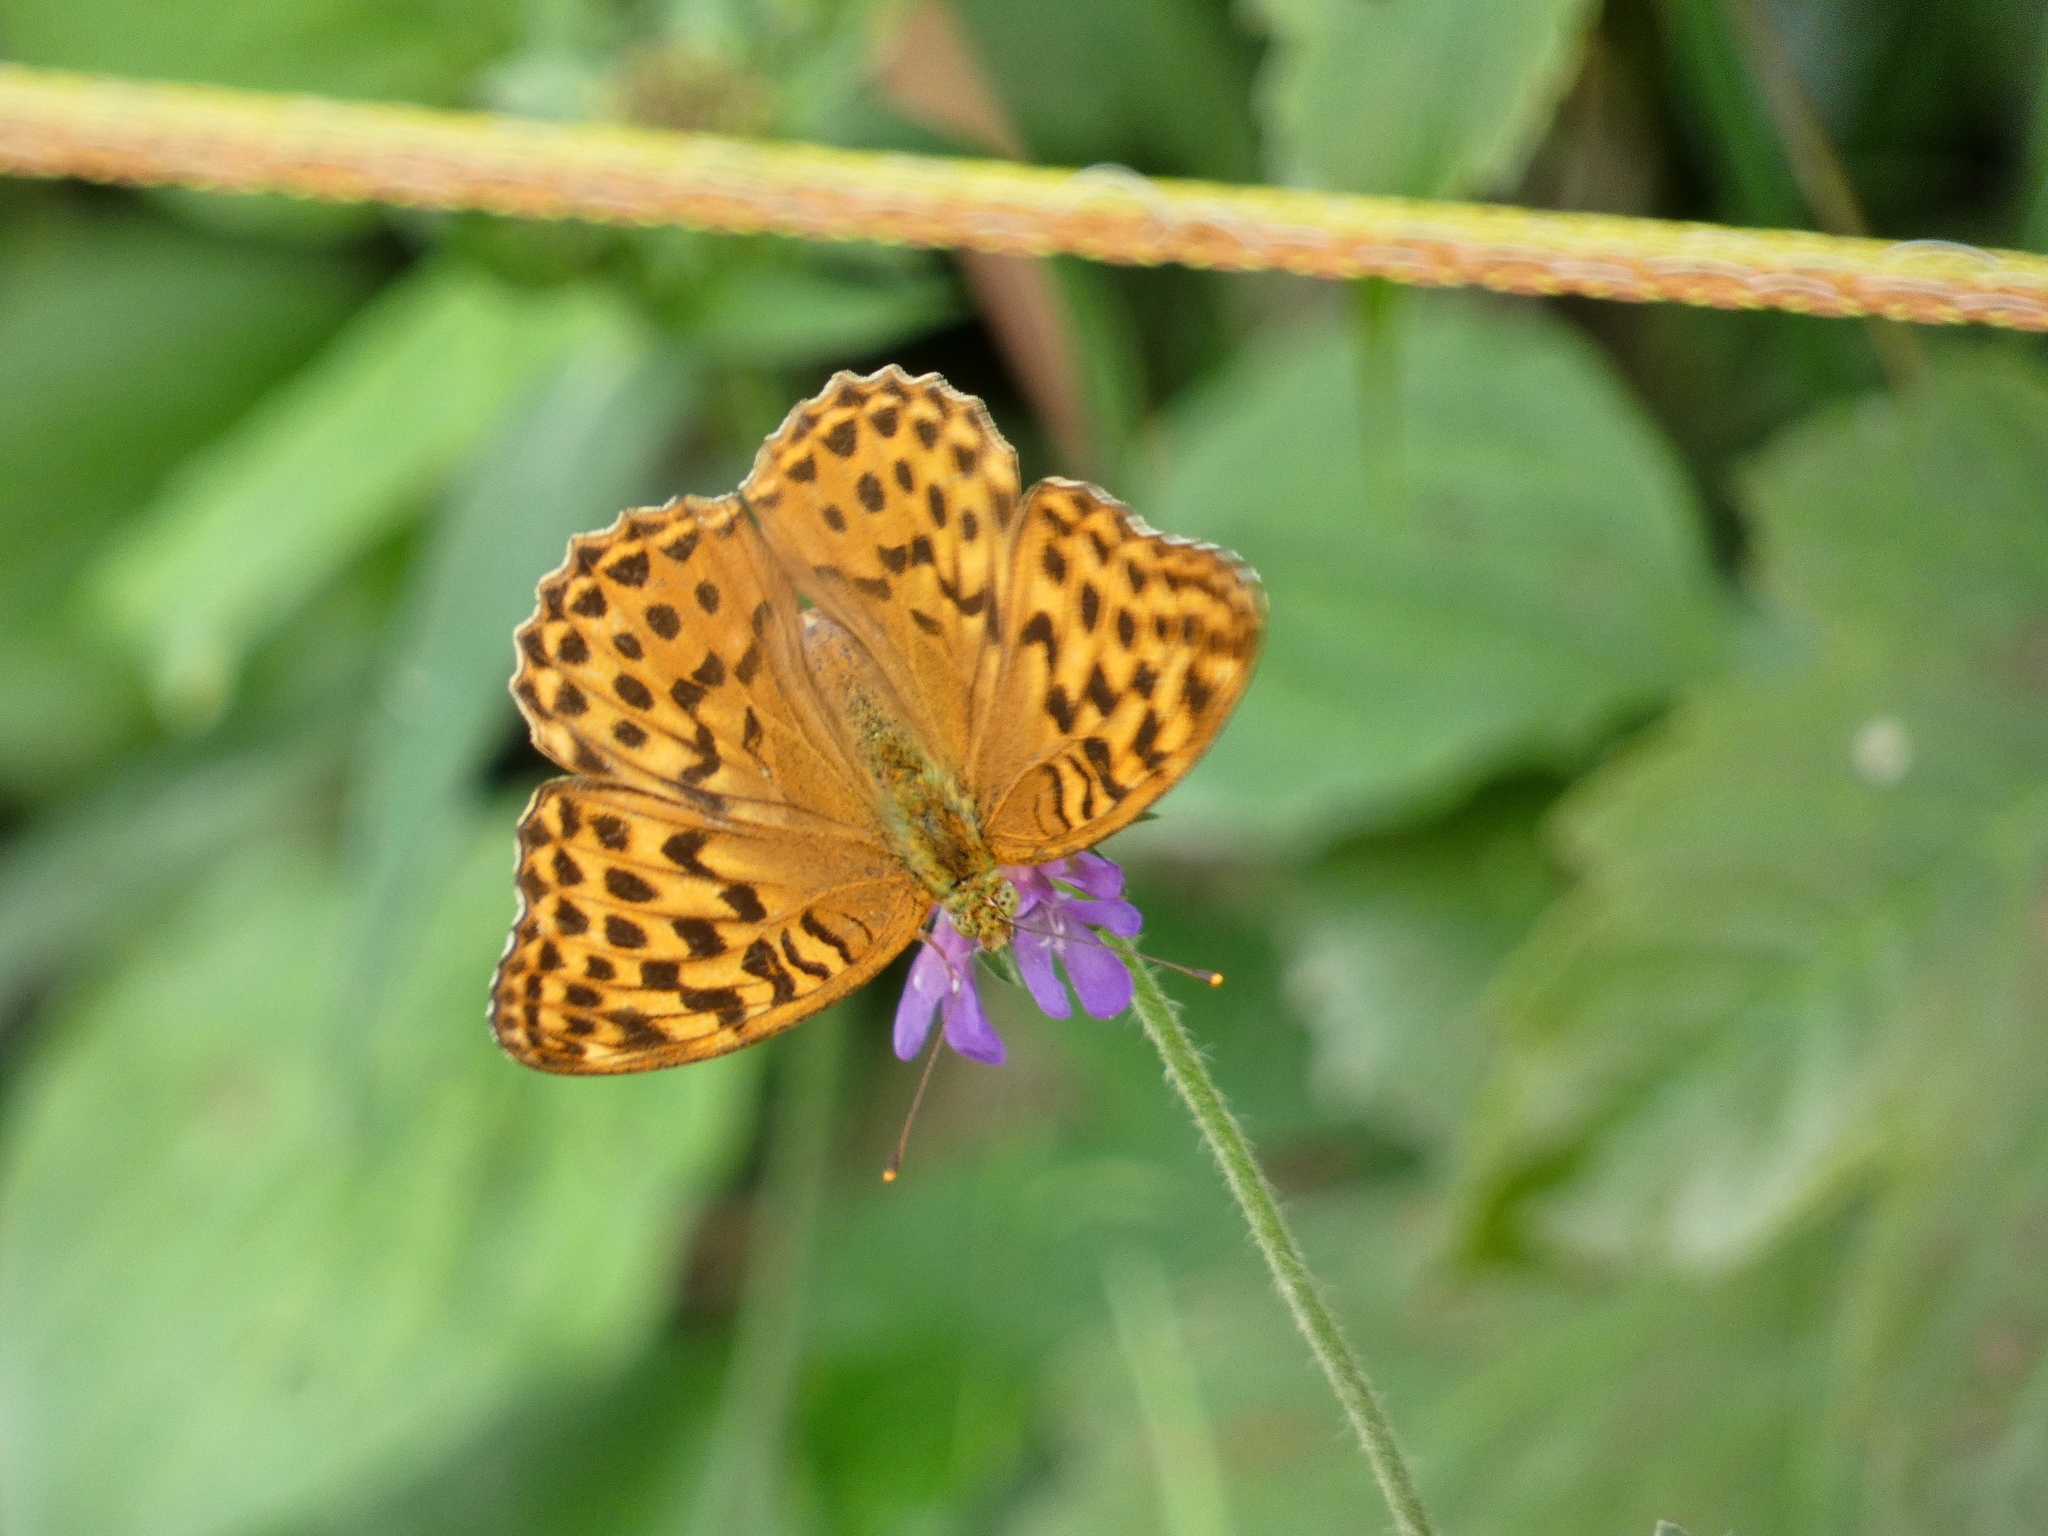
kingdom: Animalia
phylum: Arthropoda
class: Insecta
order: Lepidoptera
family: Nymphalidae
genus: Argynnis
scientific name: Argynnis paphia
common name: Silver-washed fritillary
